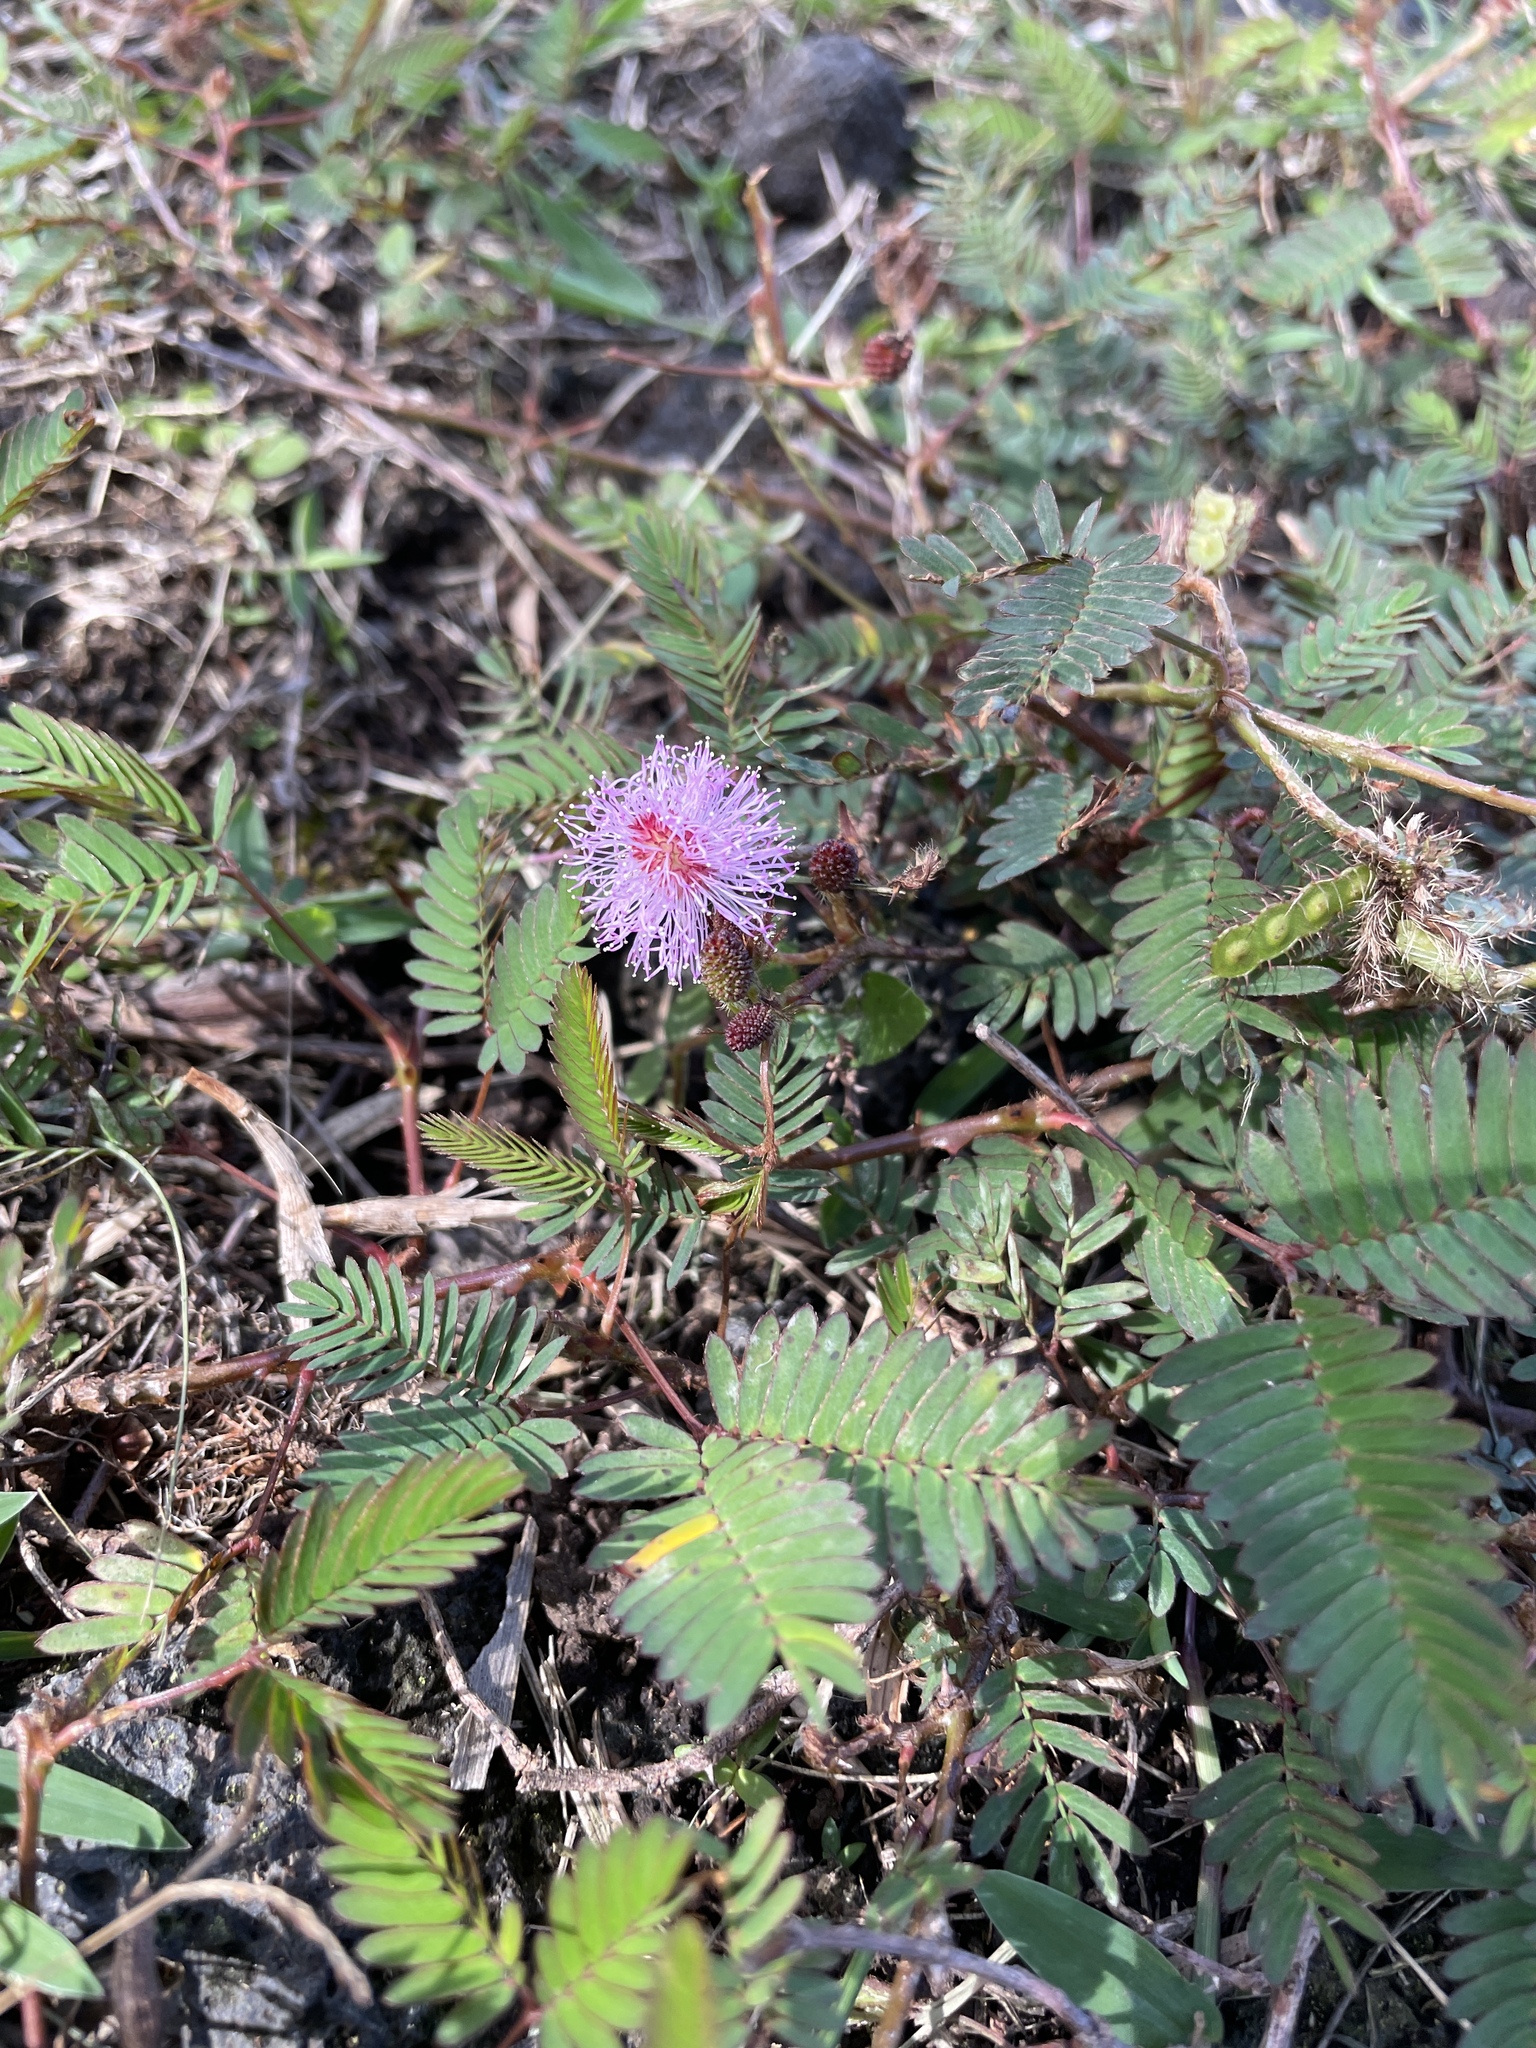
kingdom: Plantae
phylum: Tracheophyta
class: Magnoliopsida
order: Fabales
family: Fabaceae
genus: Mimosa
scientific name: Mimosa pudica
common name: Sensitive plant
